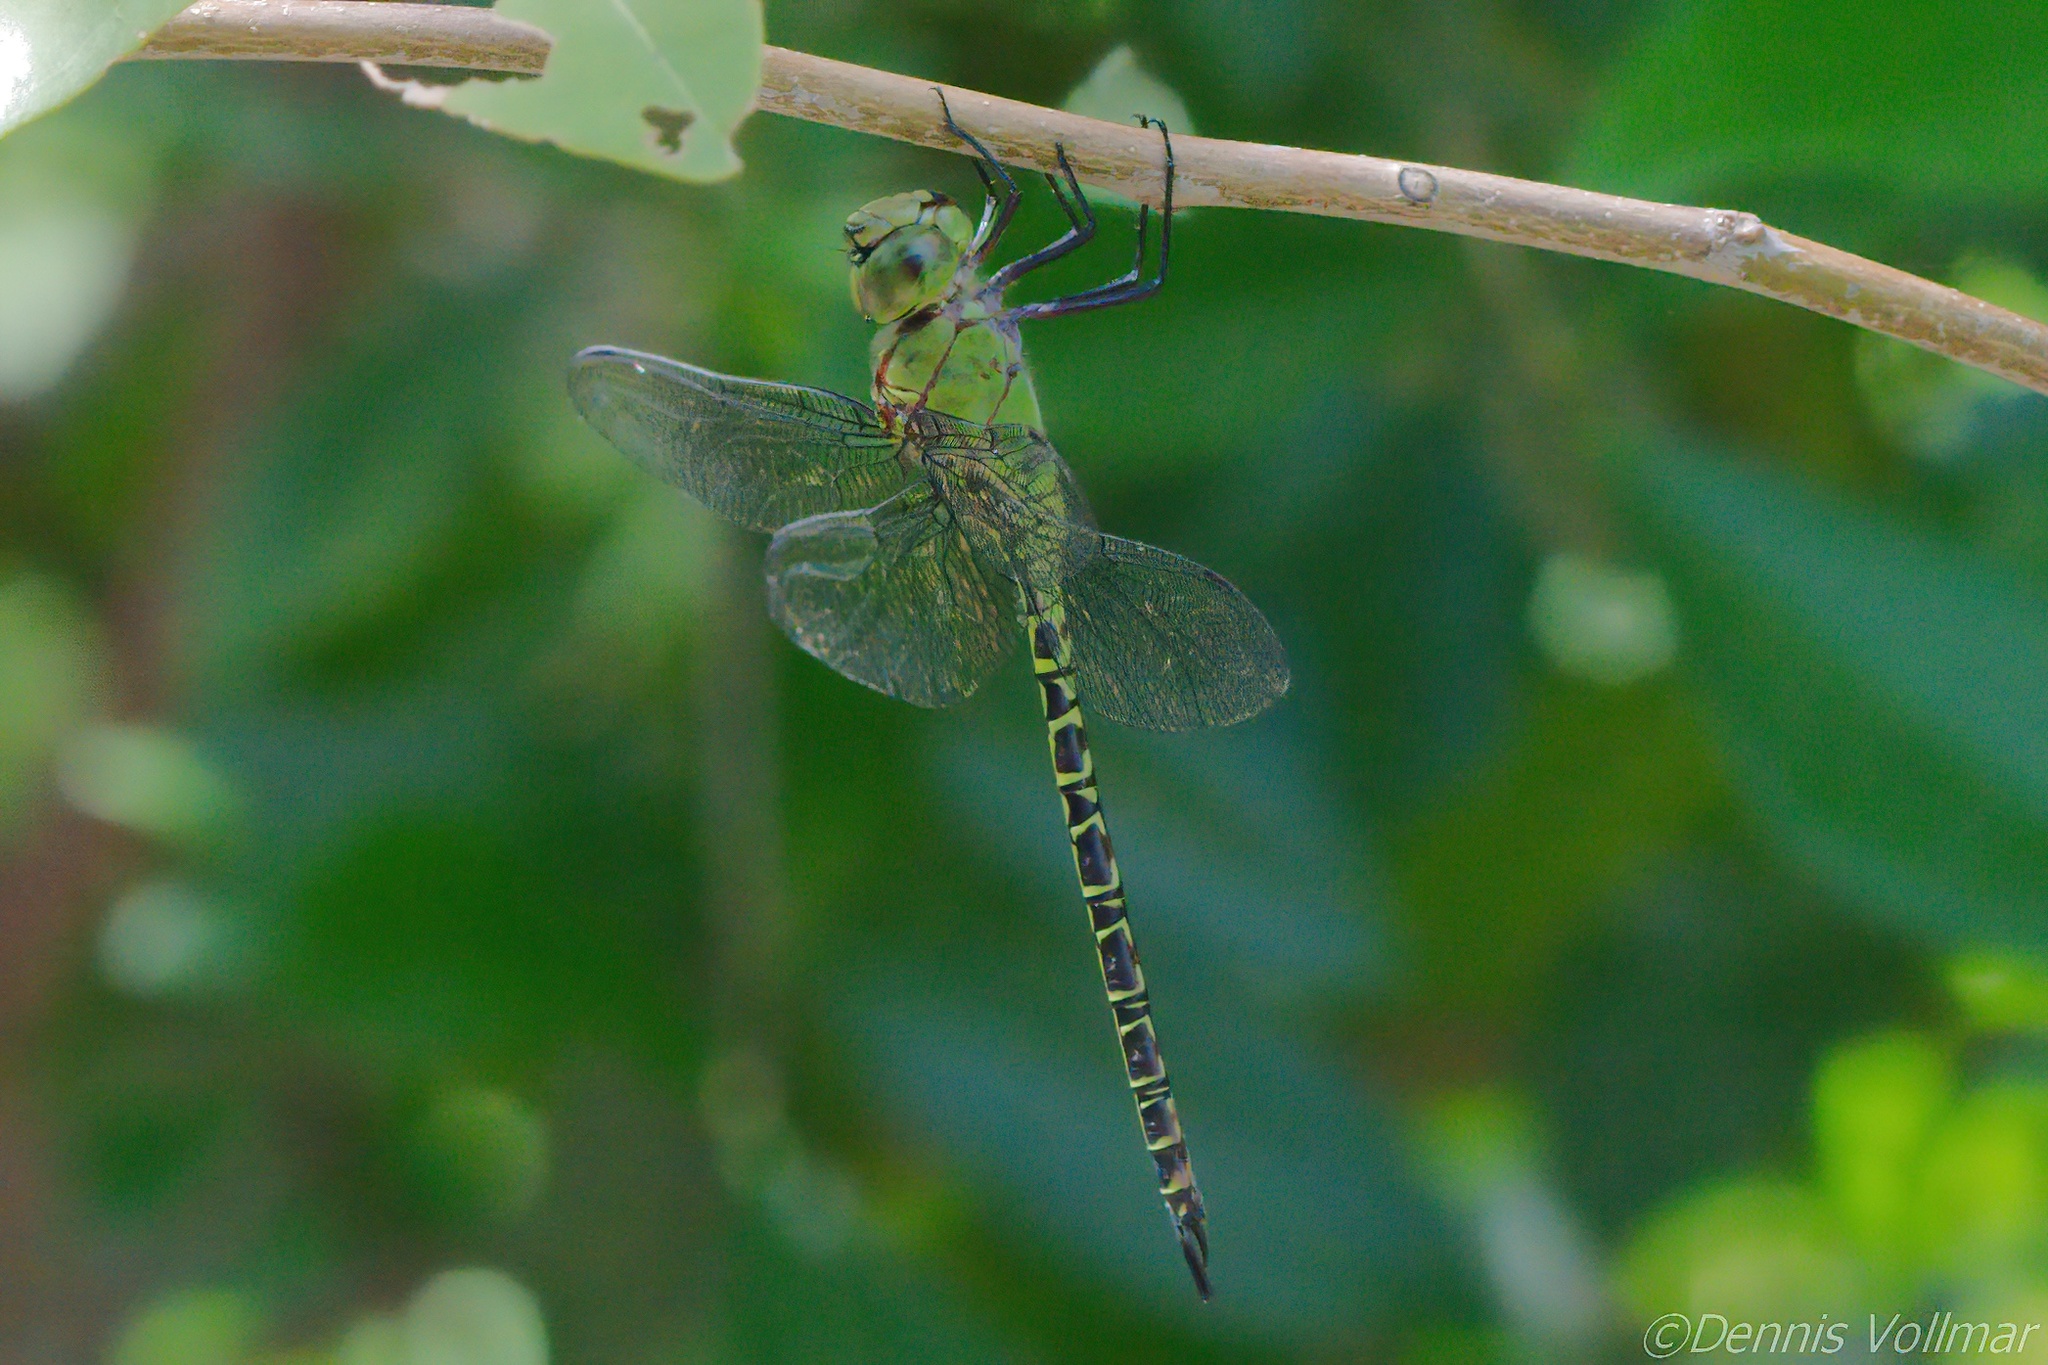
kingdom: Animalia
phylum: Arthropoda
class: Insecta
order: Odonata
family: Aeshnidae
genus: Coryphaeschna
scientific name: Coryphaeschna viriditas
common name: Mangrove darner
